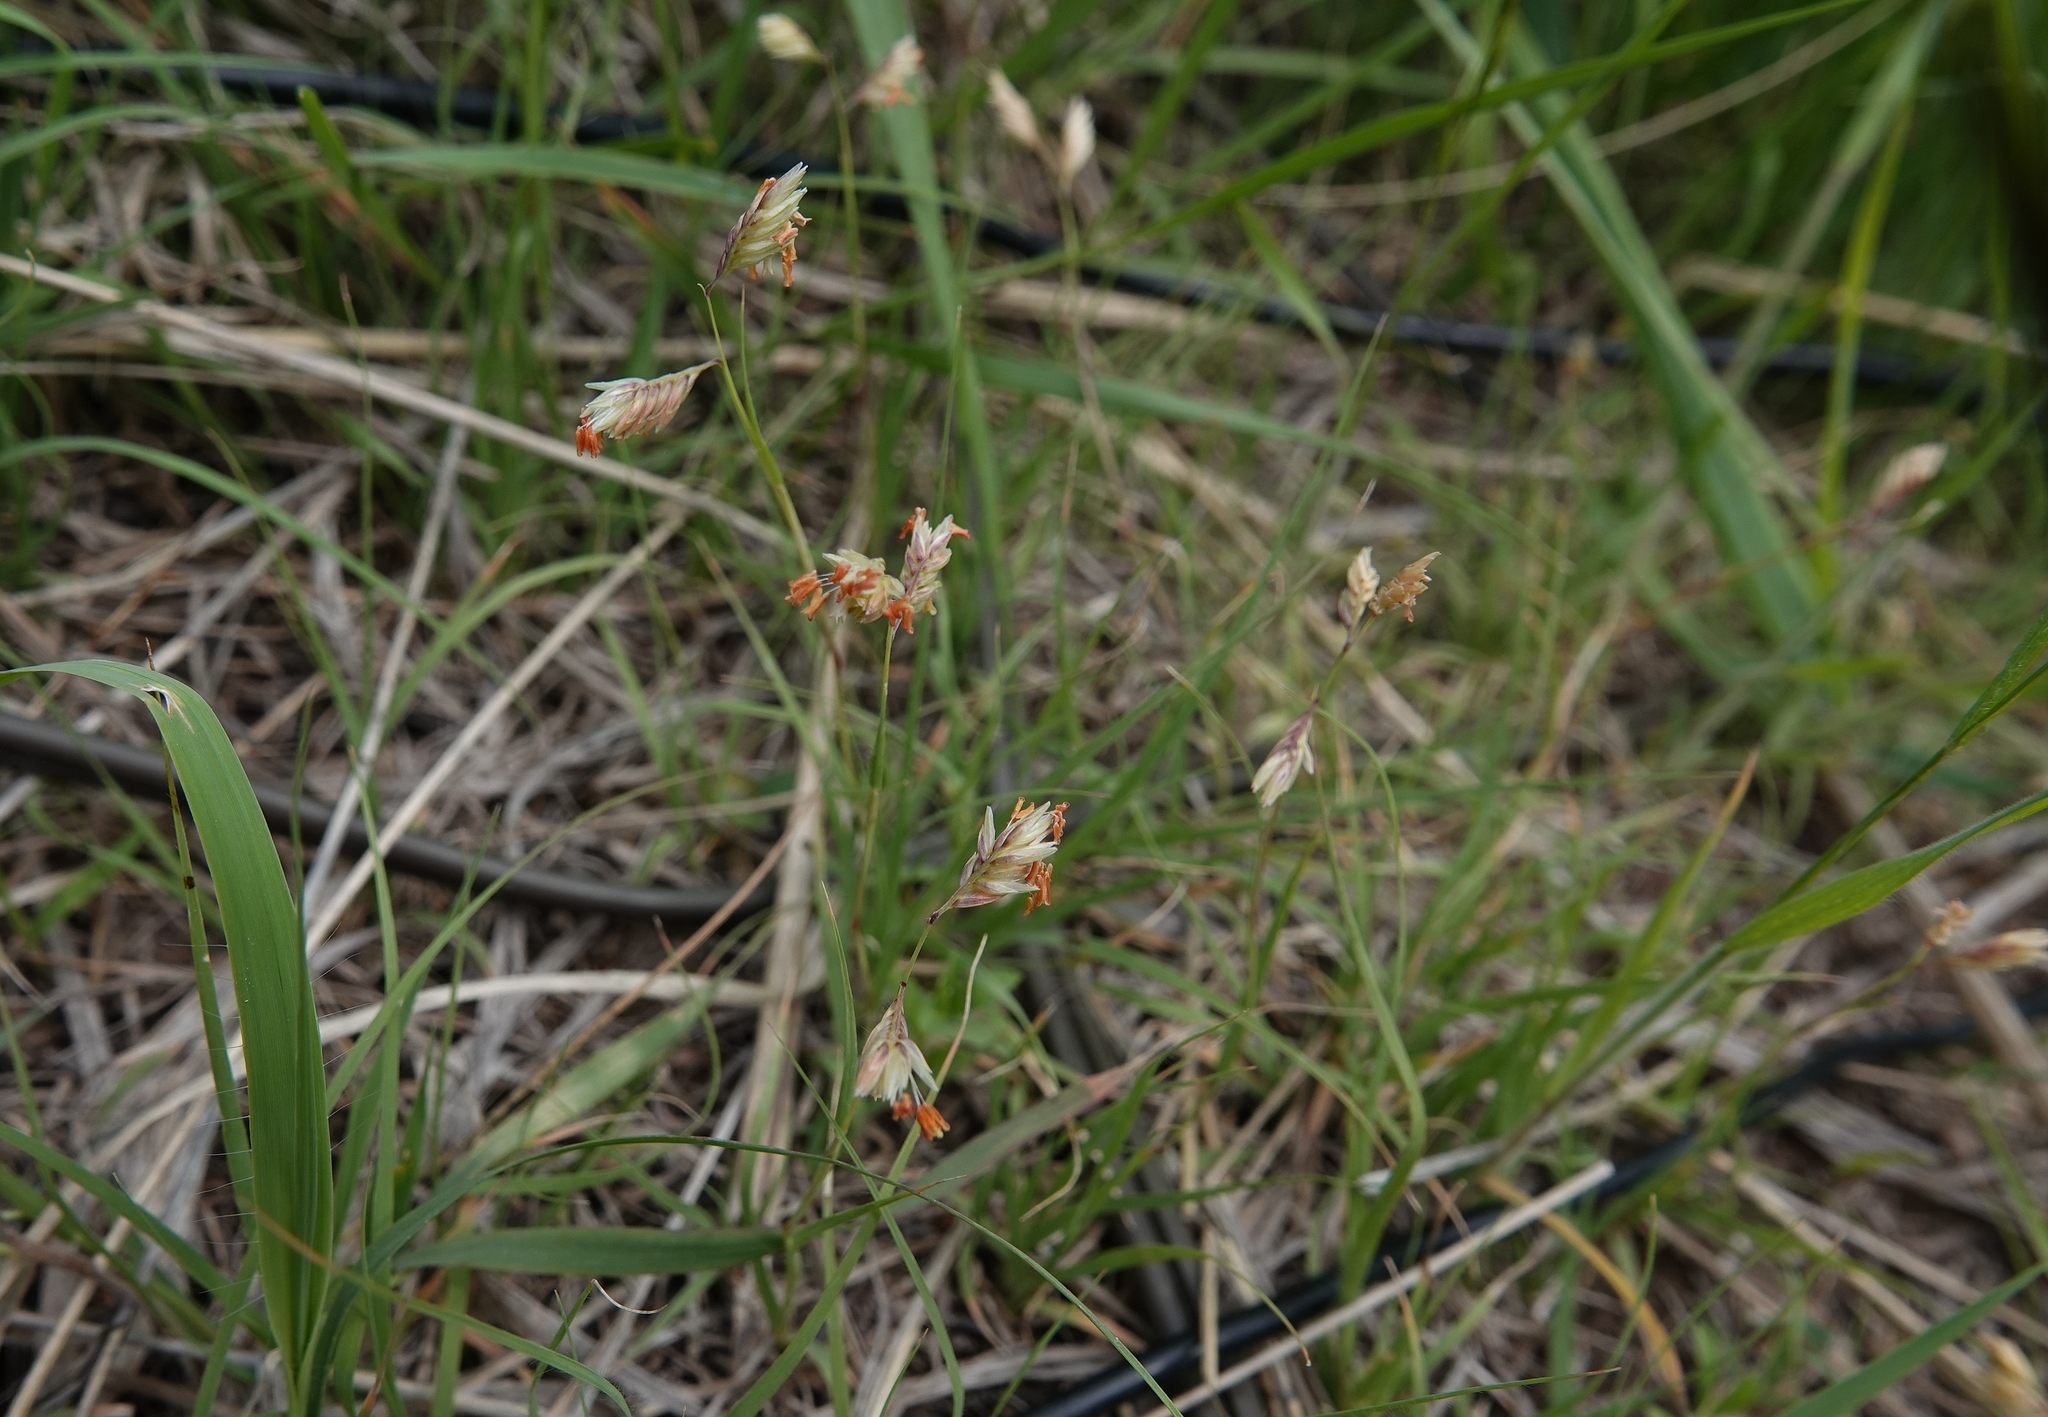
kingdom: Plantae
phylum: Tracheophyta
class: Liliopsida
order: Poales
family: Poaceae
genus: Bouteloua
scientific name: Bouteloua dactyloides
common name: Buffalo grass
